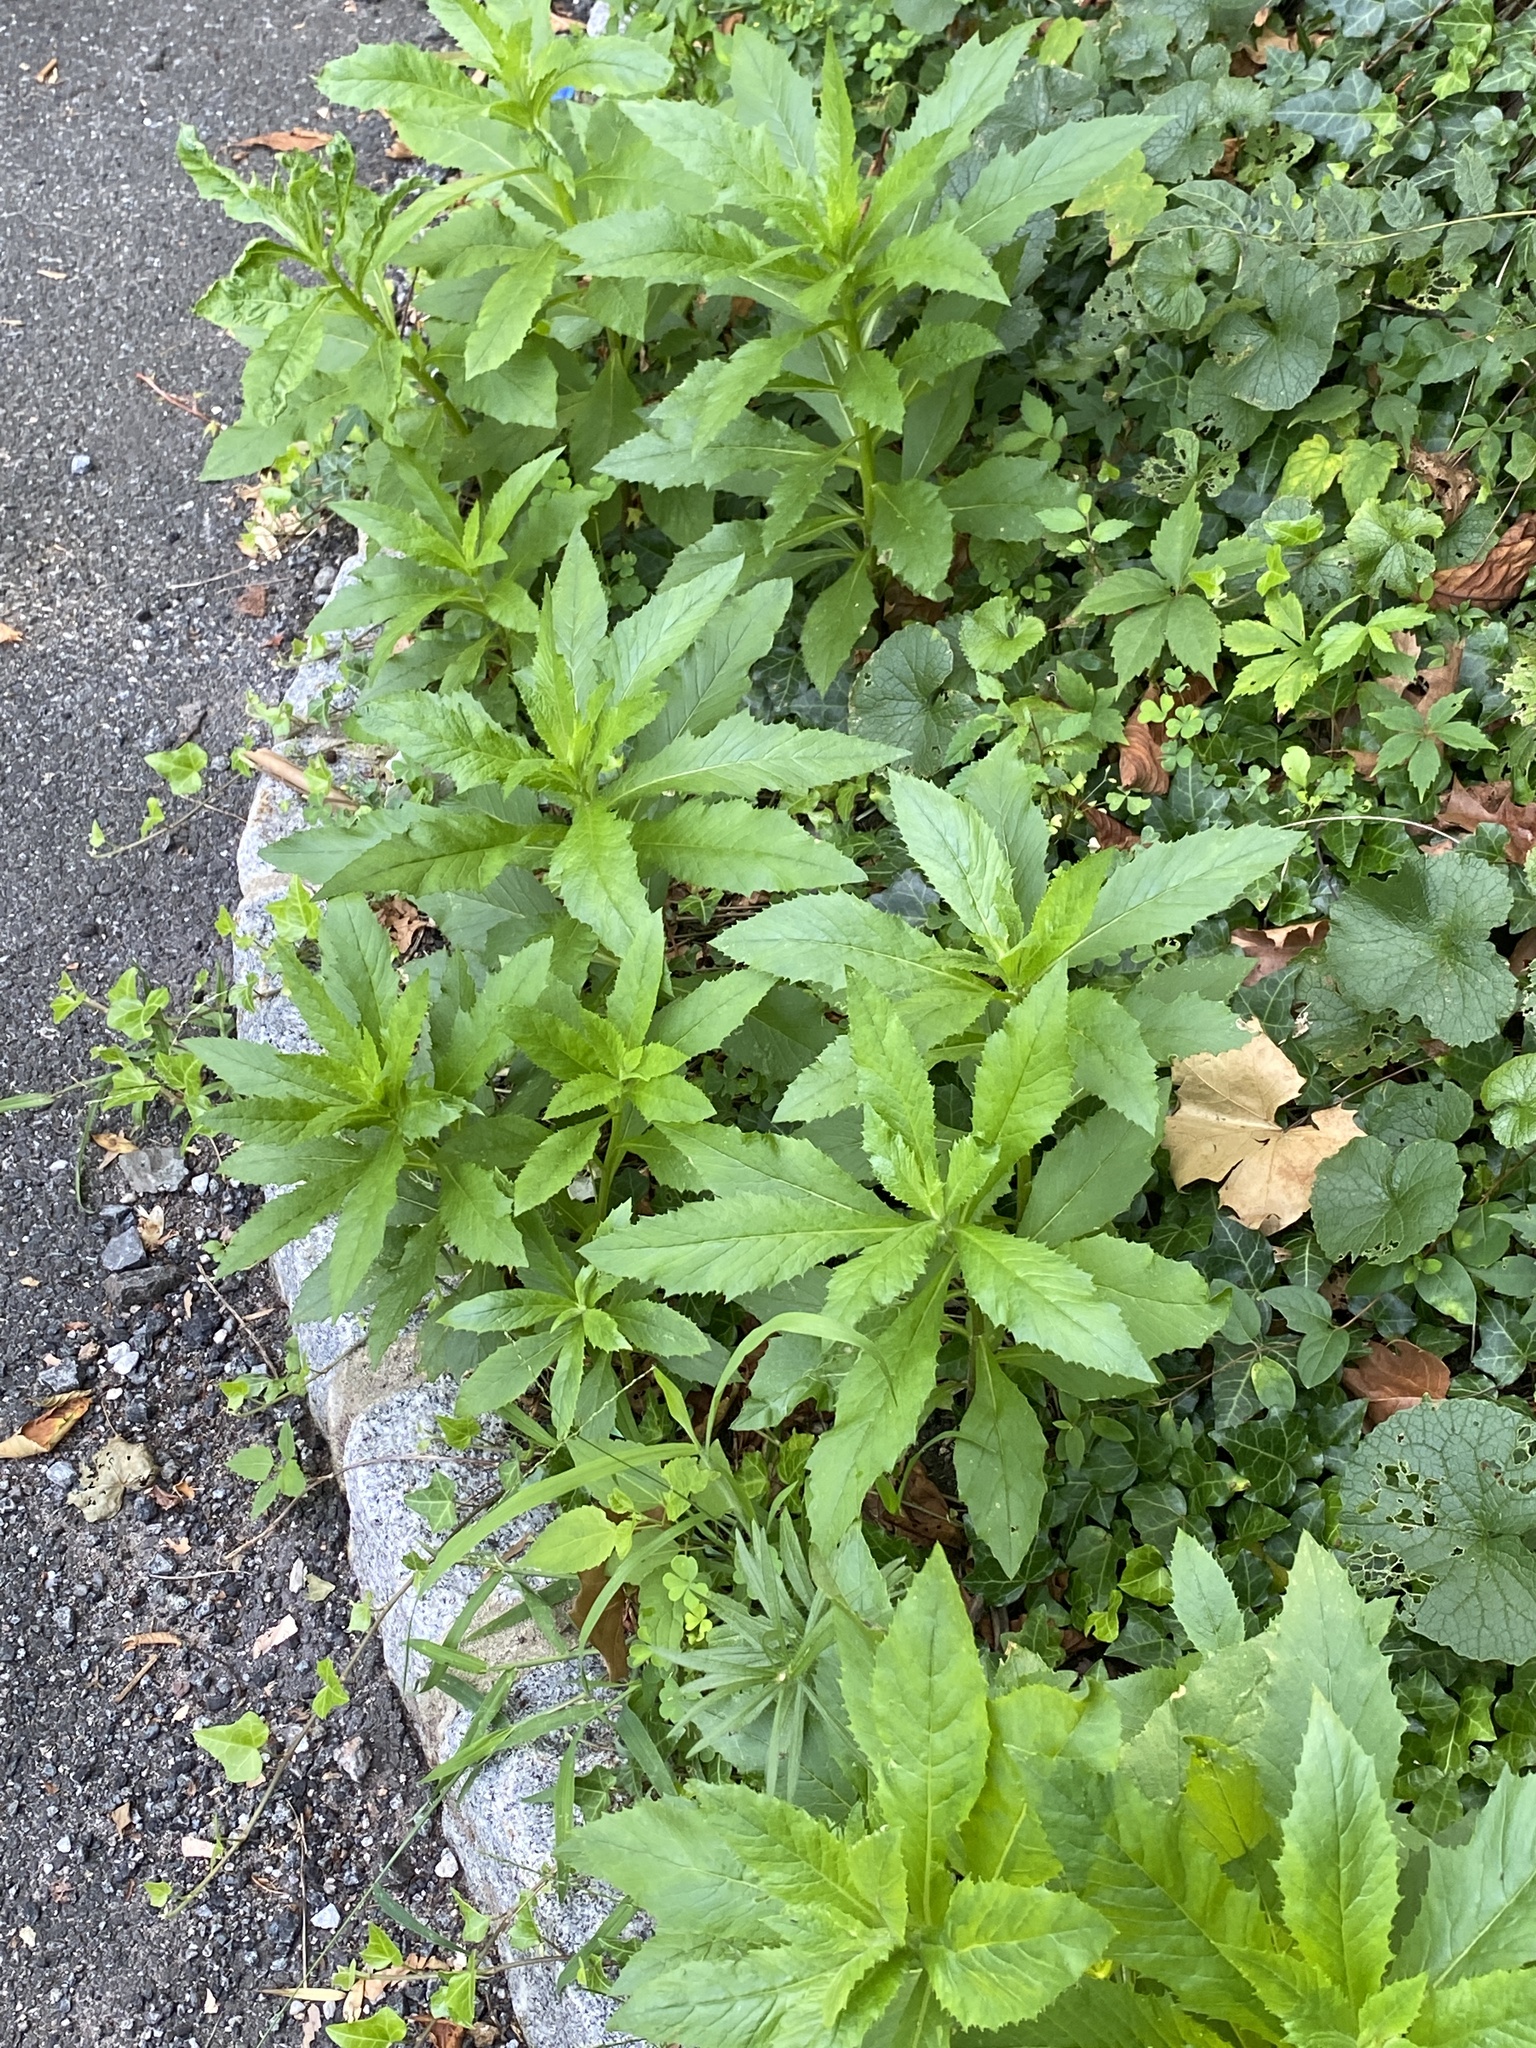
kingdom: Plantae
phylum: Tracheophyta
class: Magnoliopsida
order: Asterales
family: Asteraceae
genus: Erechtites
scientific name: Erechtites hieraciifolius
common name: American burnweed
